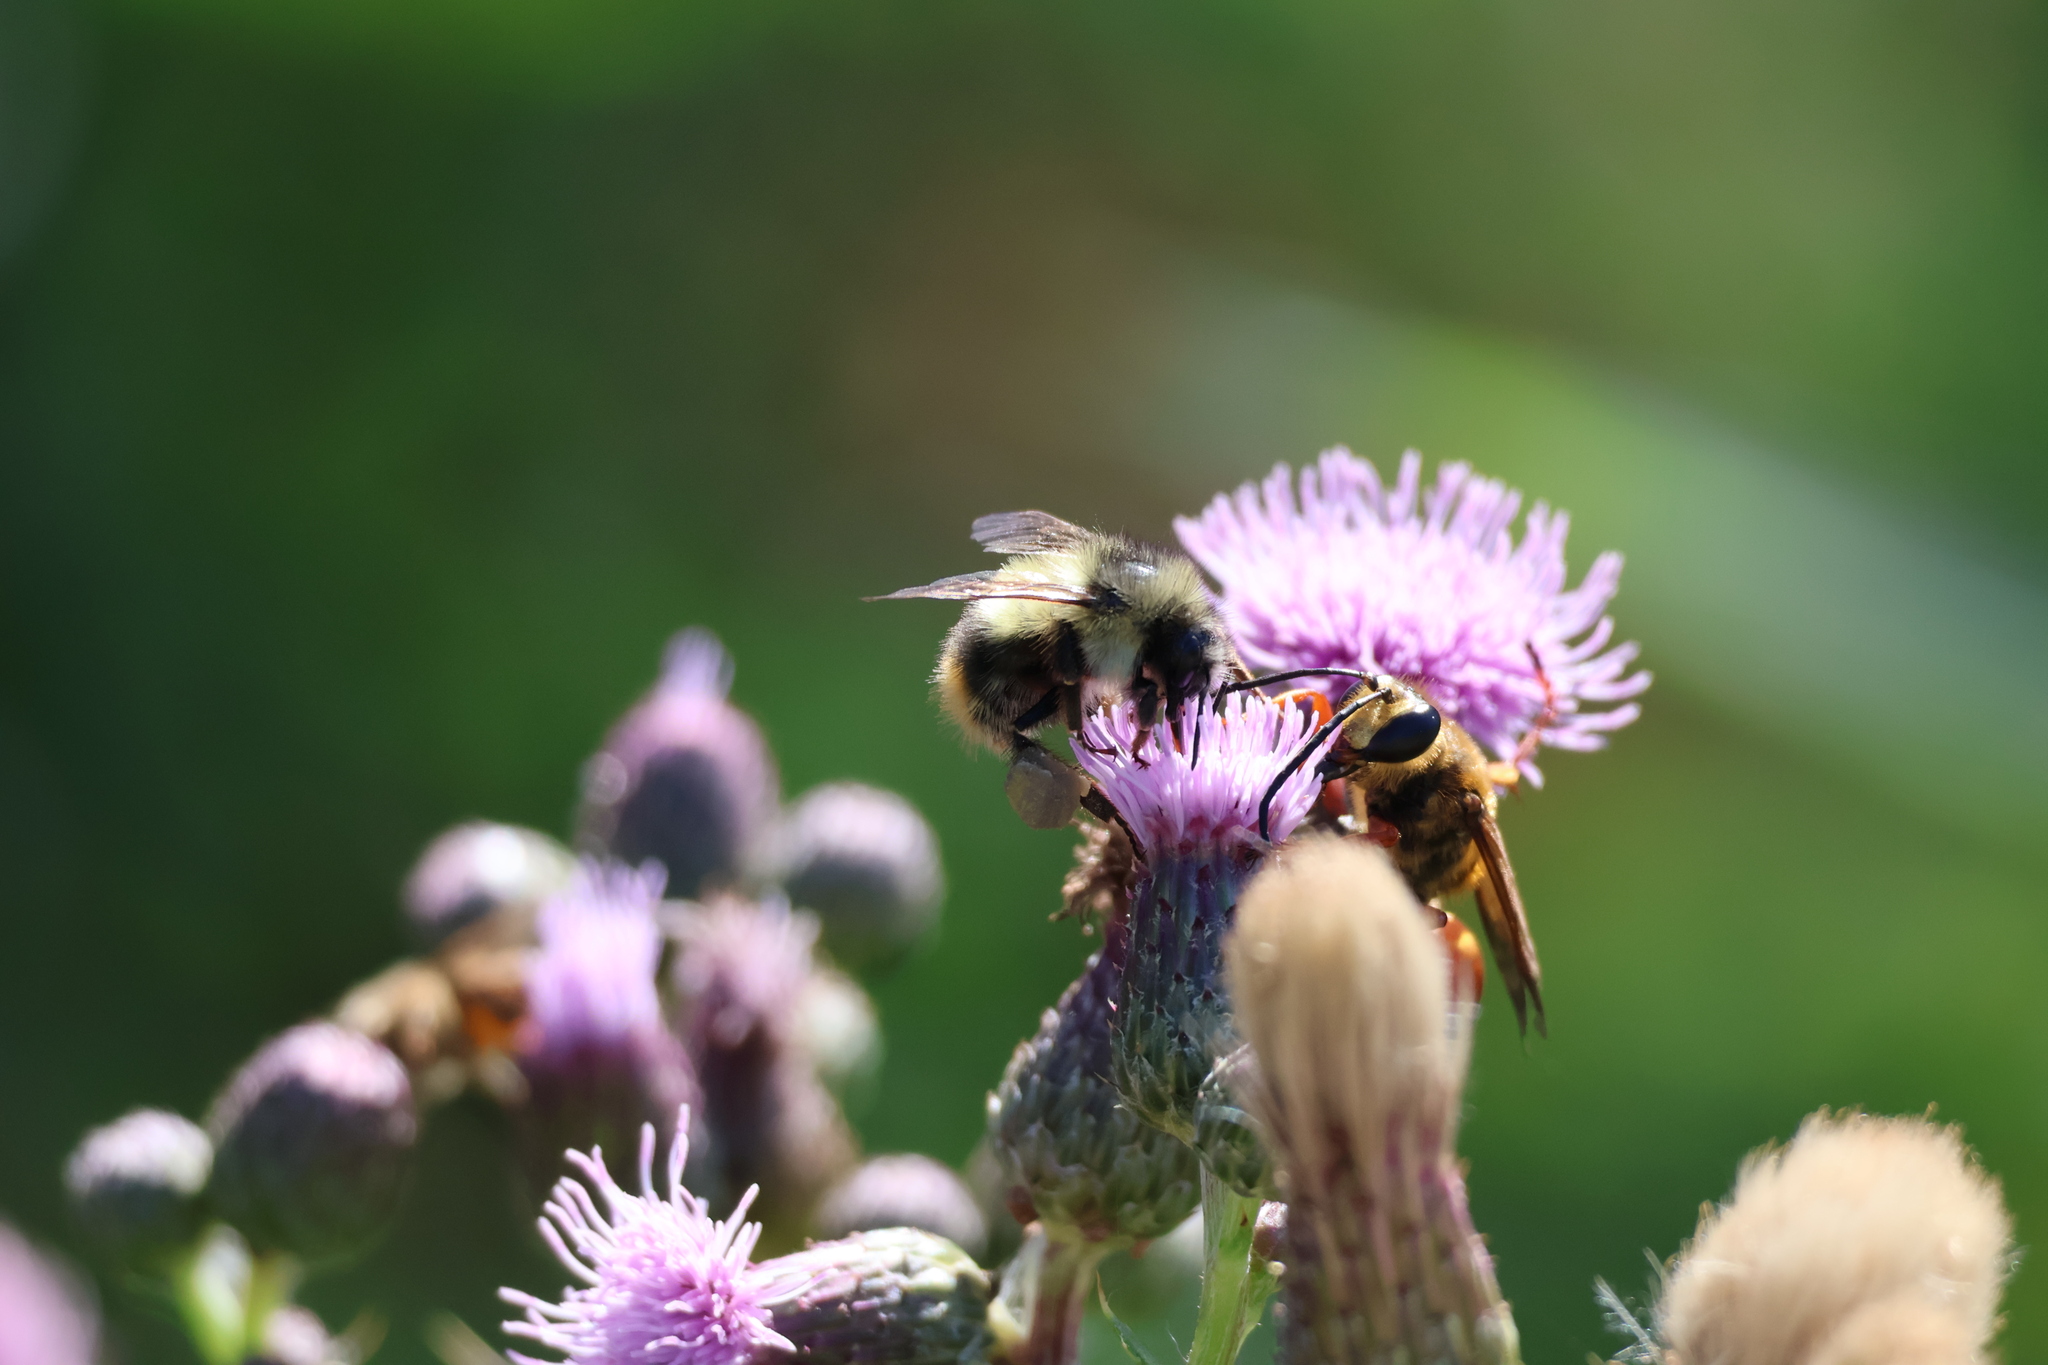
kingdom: Animalia
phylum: Arthropoda
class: Insecta
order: Hymenoptera
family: Apidae
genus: Bombus
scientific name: Bombus mixtus
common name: Fuzzy-horned bumble bee
